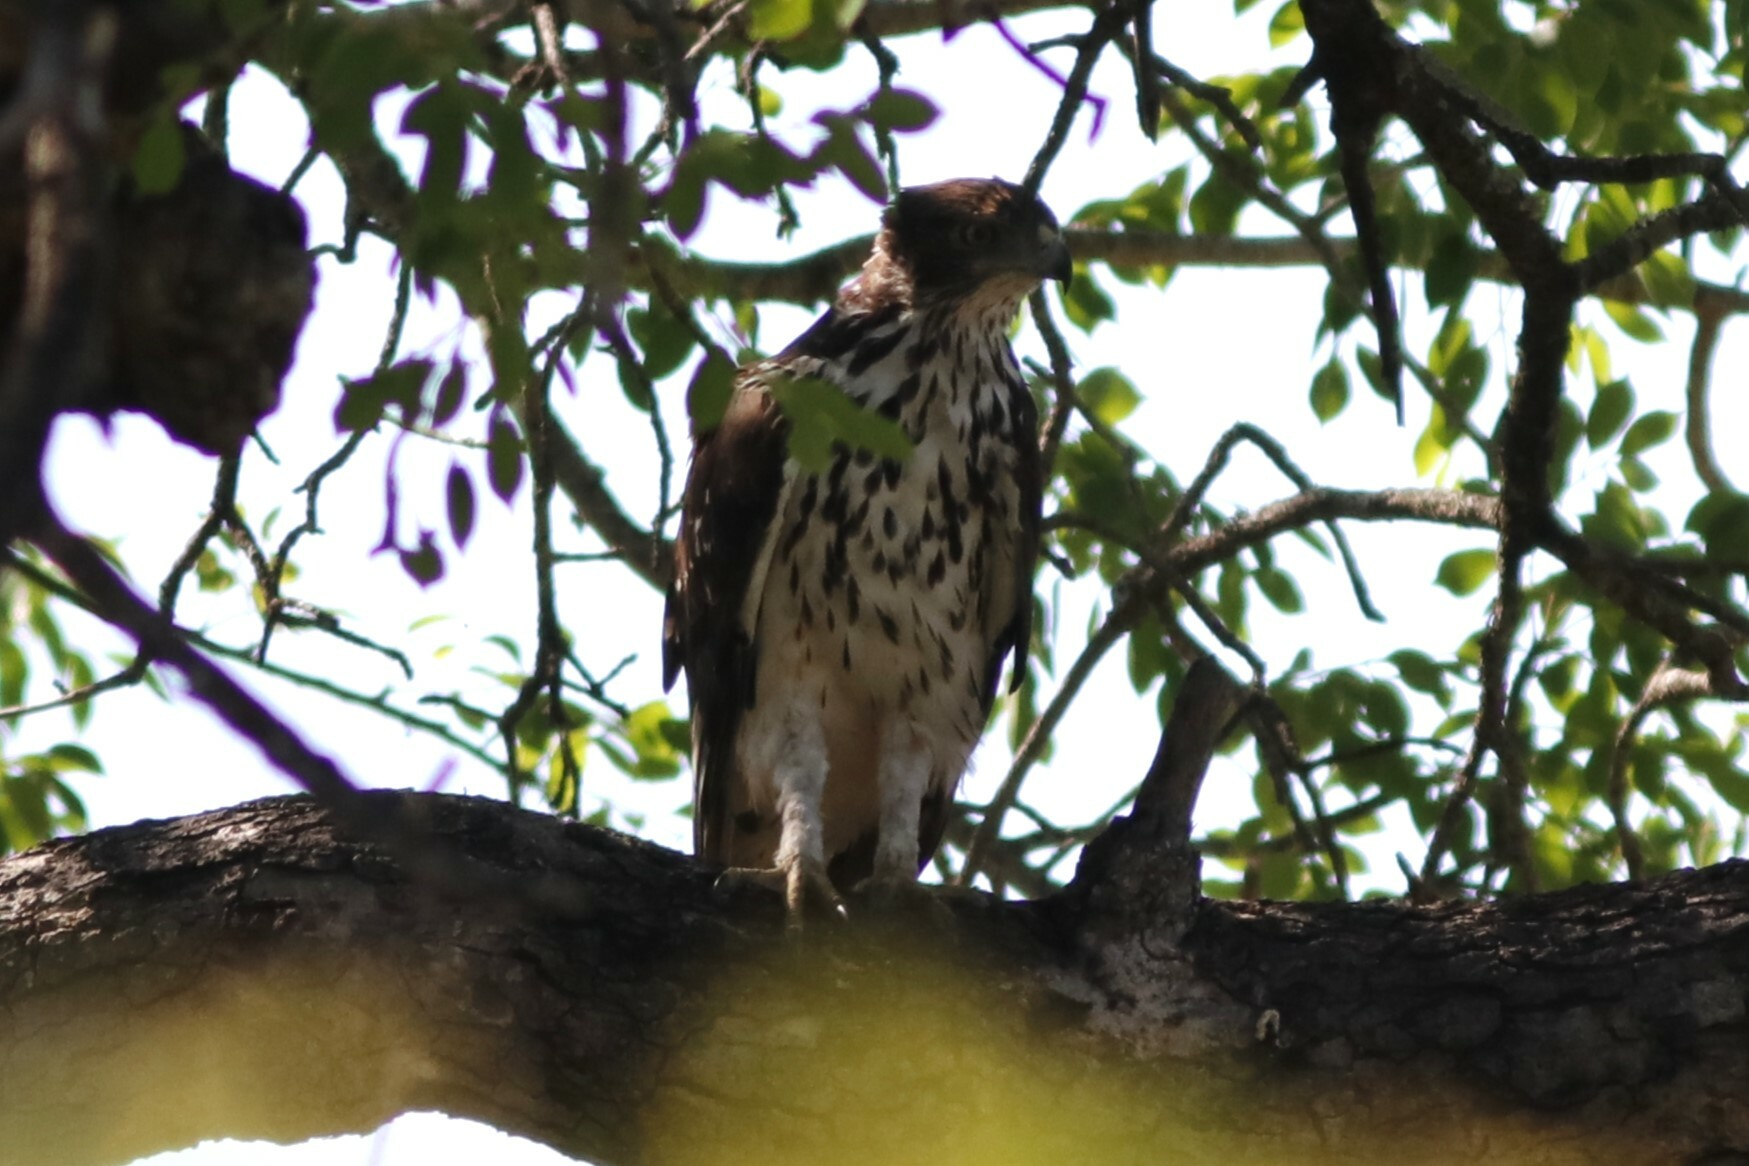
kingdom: Animalia
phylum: Chordata
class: Aves
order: Accipitriformes
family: Accipitridae
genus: Aquila
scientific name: Aquila spilogaster
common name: African hawk-eagle
